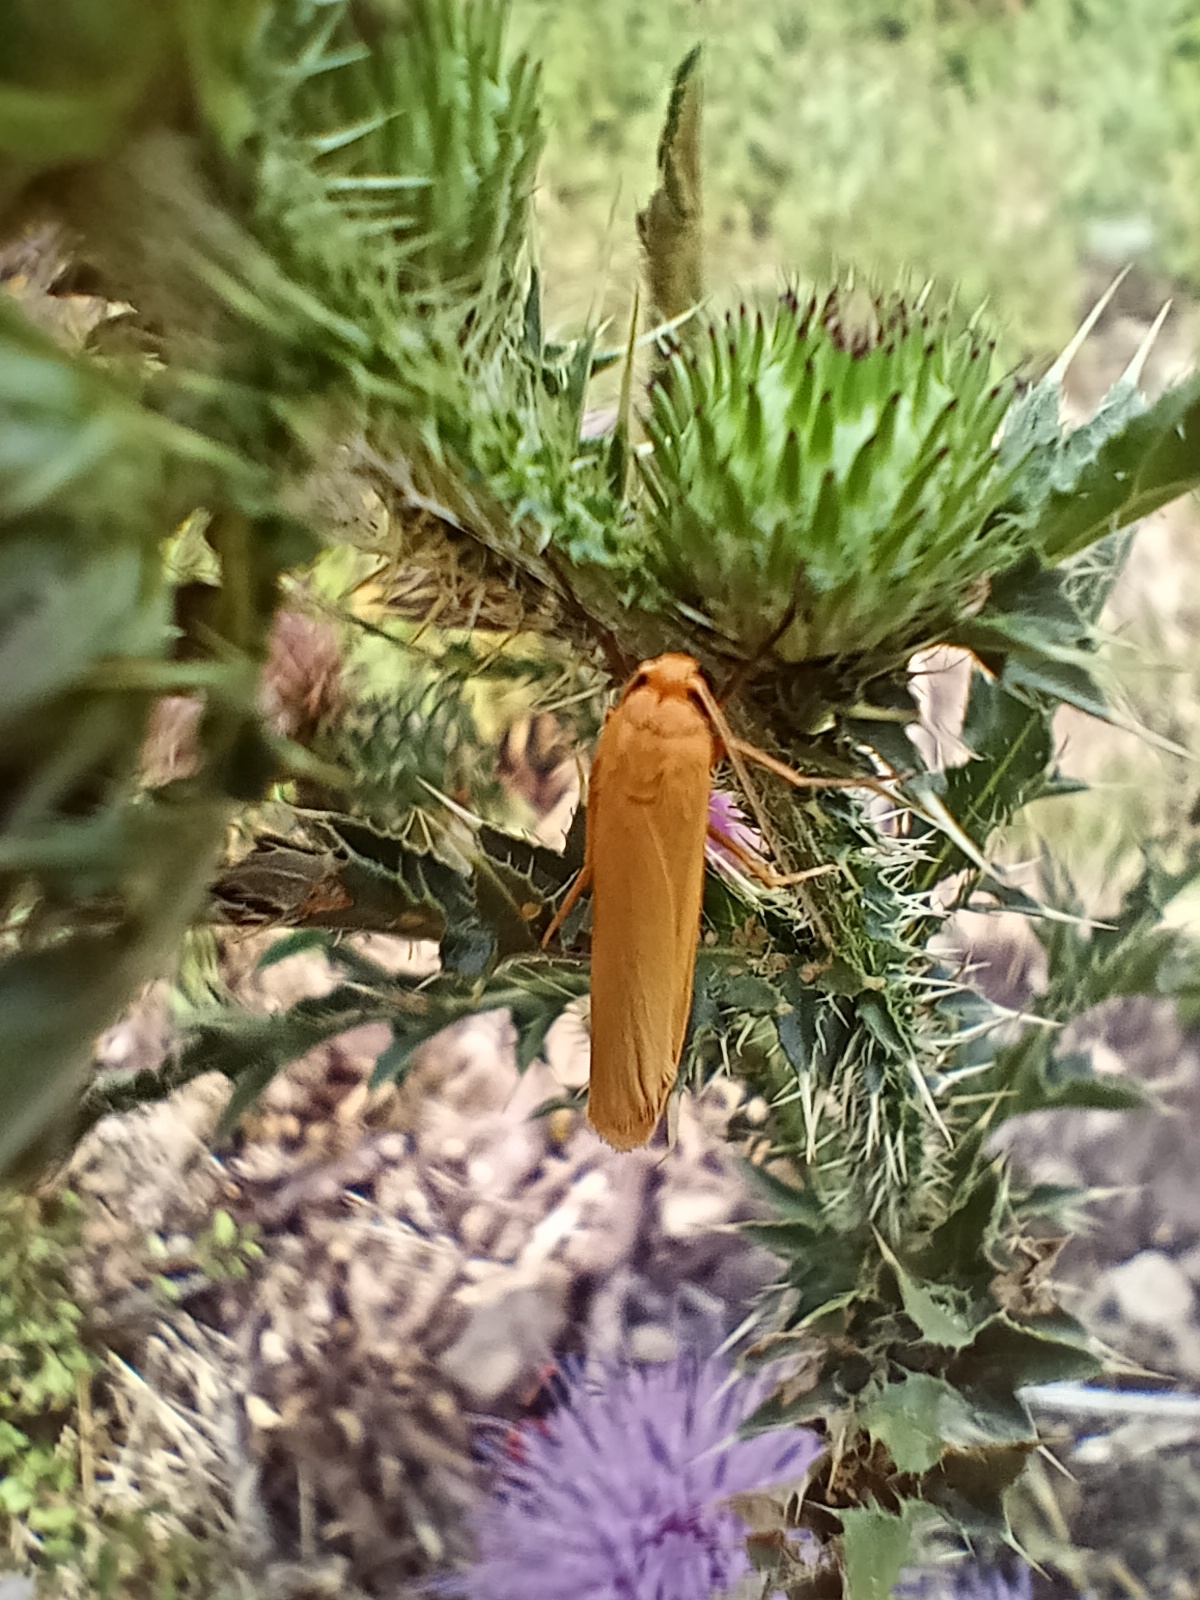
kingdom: Animalia
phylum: Arthropoda
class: Insecta
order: Lepidoptera
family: Erebidae
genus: Indalia
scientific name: Indalia pygmaeola
